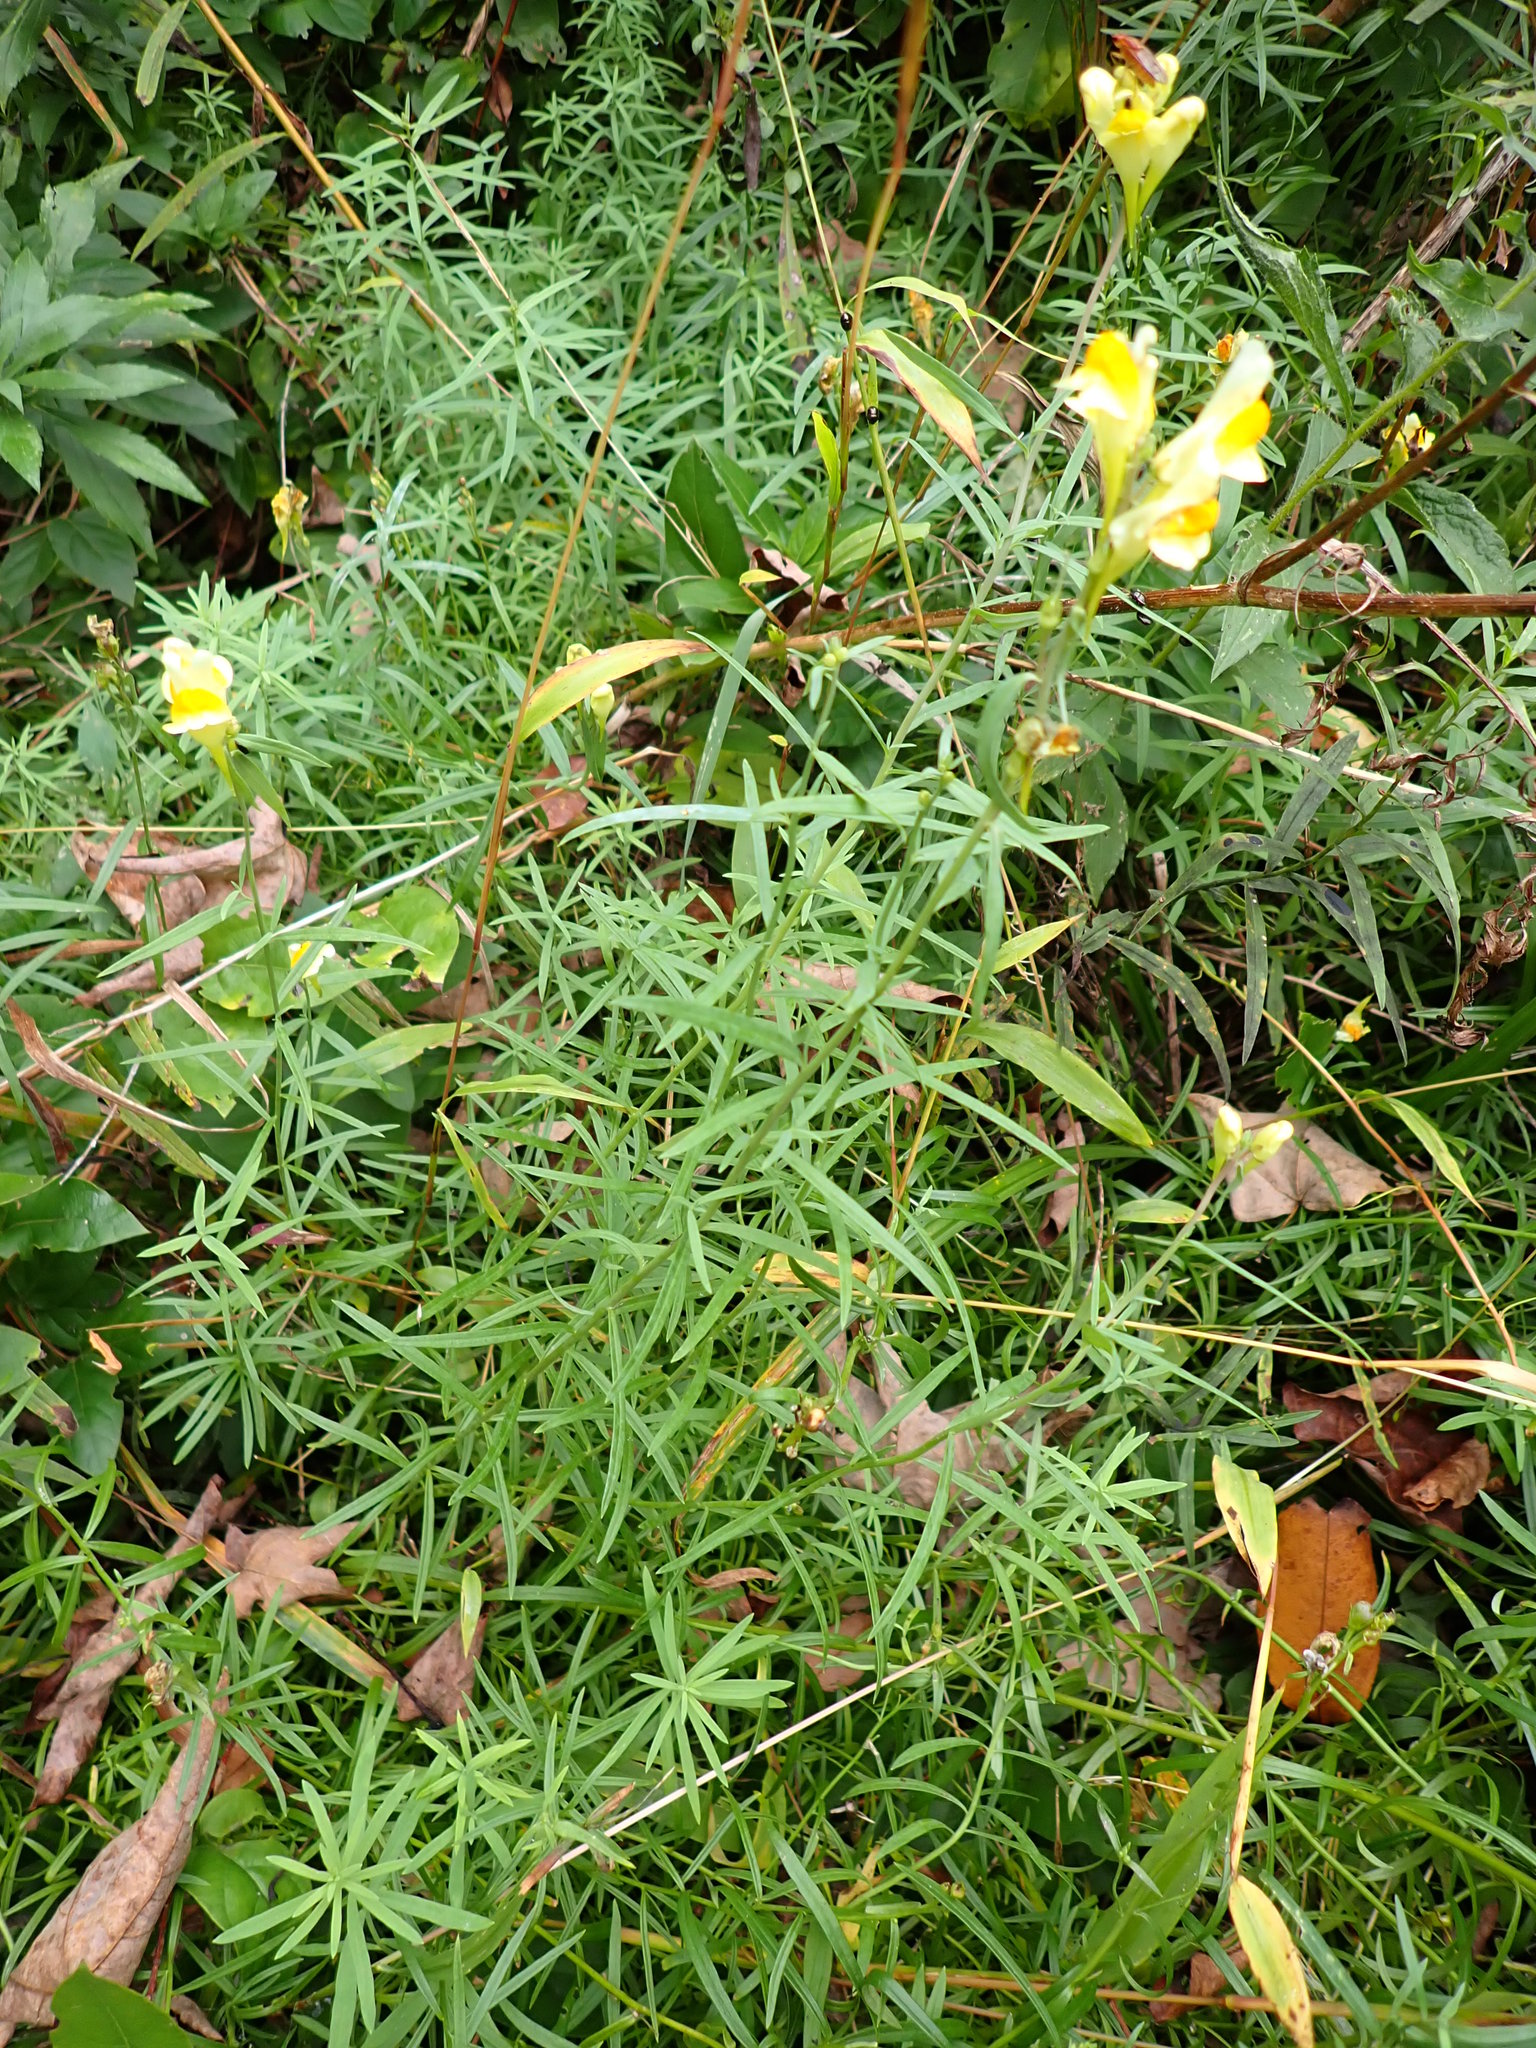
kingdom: Plantae
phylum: Tracheophyta
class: Magnoliopsida
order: Lamiales
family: Plantaginaceae
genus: Linaria
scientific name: Linaria vulgaris
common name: Butter and eggs
